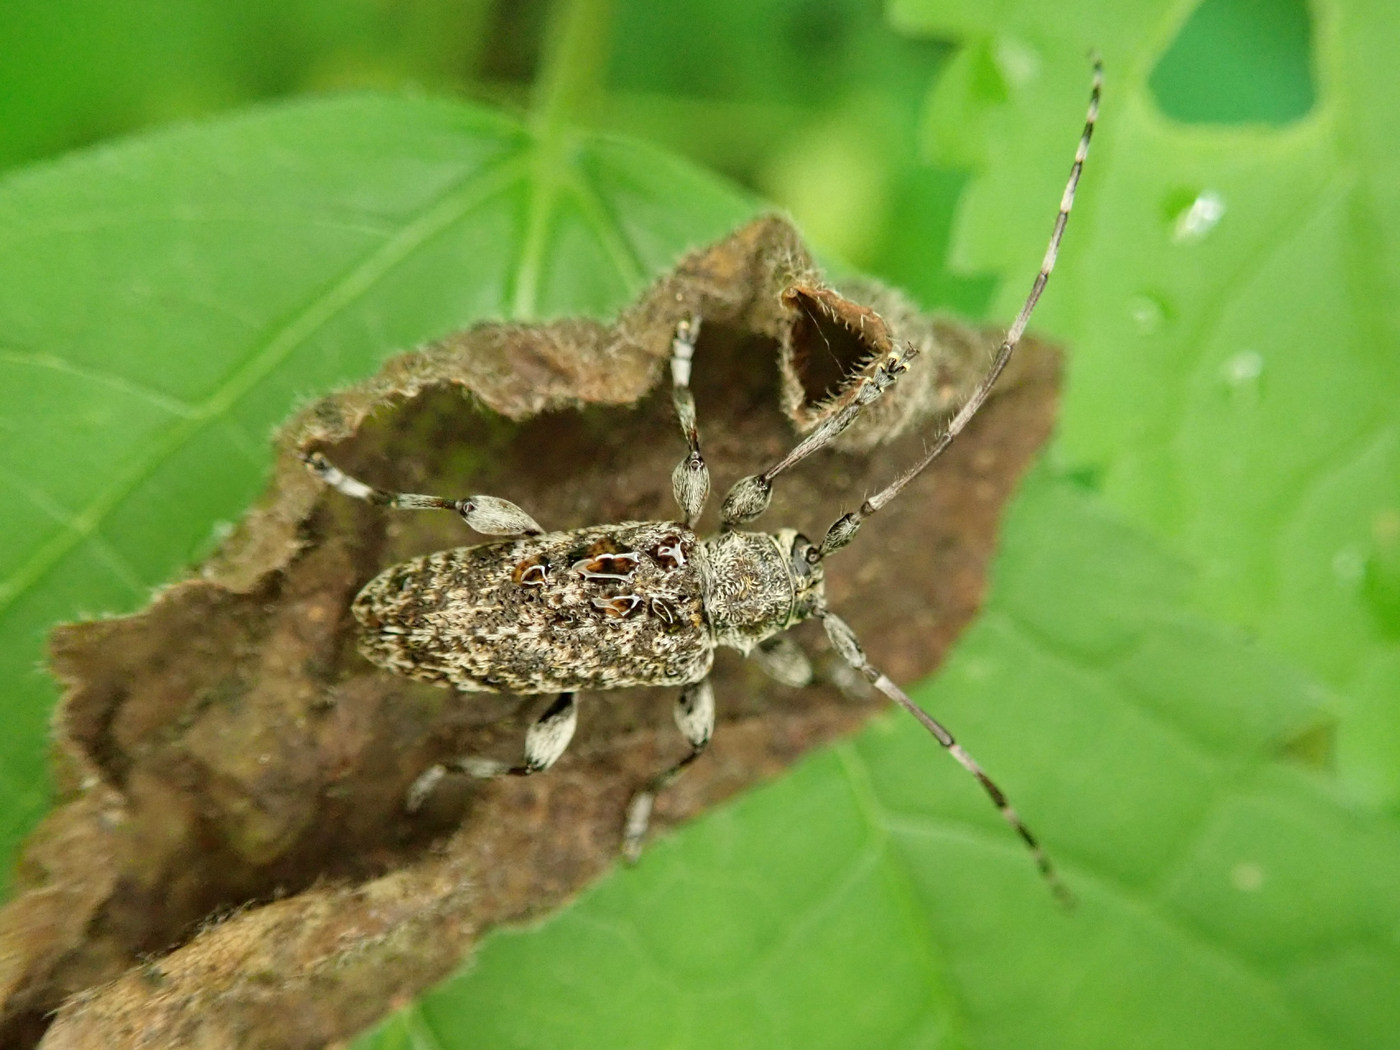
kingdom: Animalia
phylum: Arthropoda
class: Insecta
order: Coleoptera
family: Cerambycidae
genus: Oplosia
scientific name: Oplosia nubila
